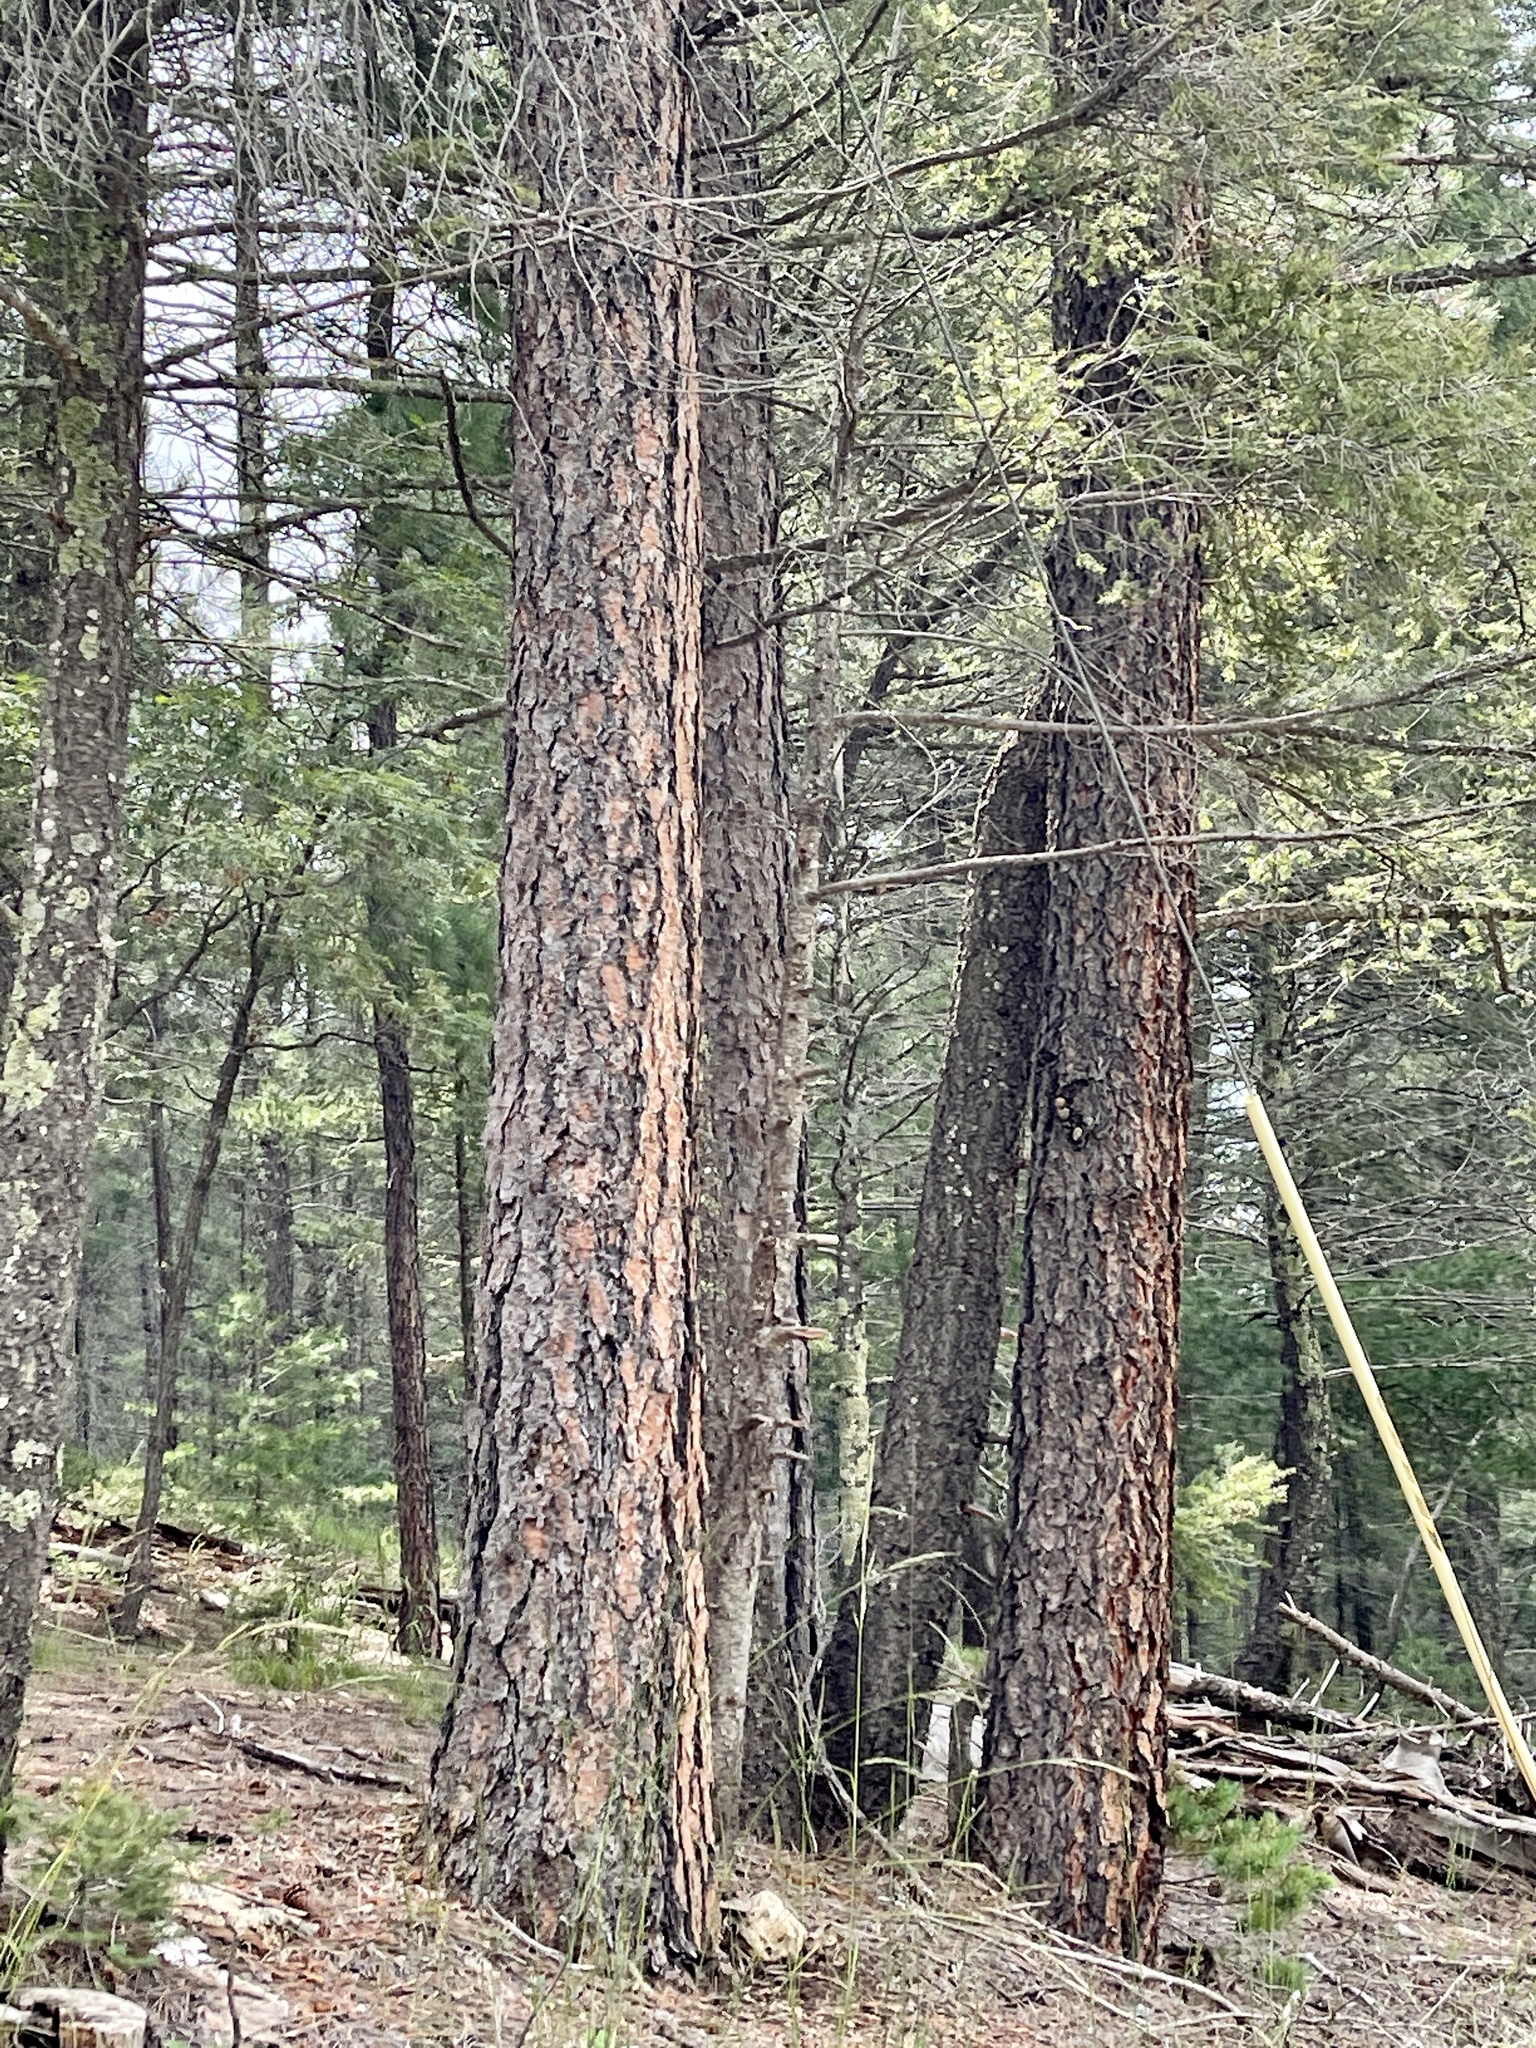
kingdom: Plantae
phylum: Tracheophyta
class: Pinopsida
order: Pinales
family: Pinaceae
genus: Pinus
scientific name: Pinus ponderosa
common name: Western yellow-pine
